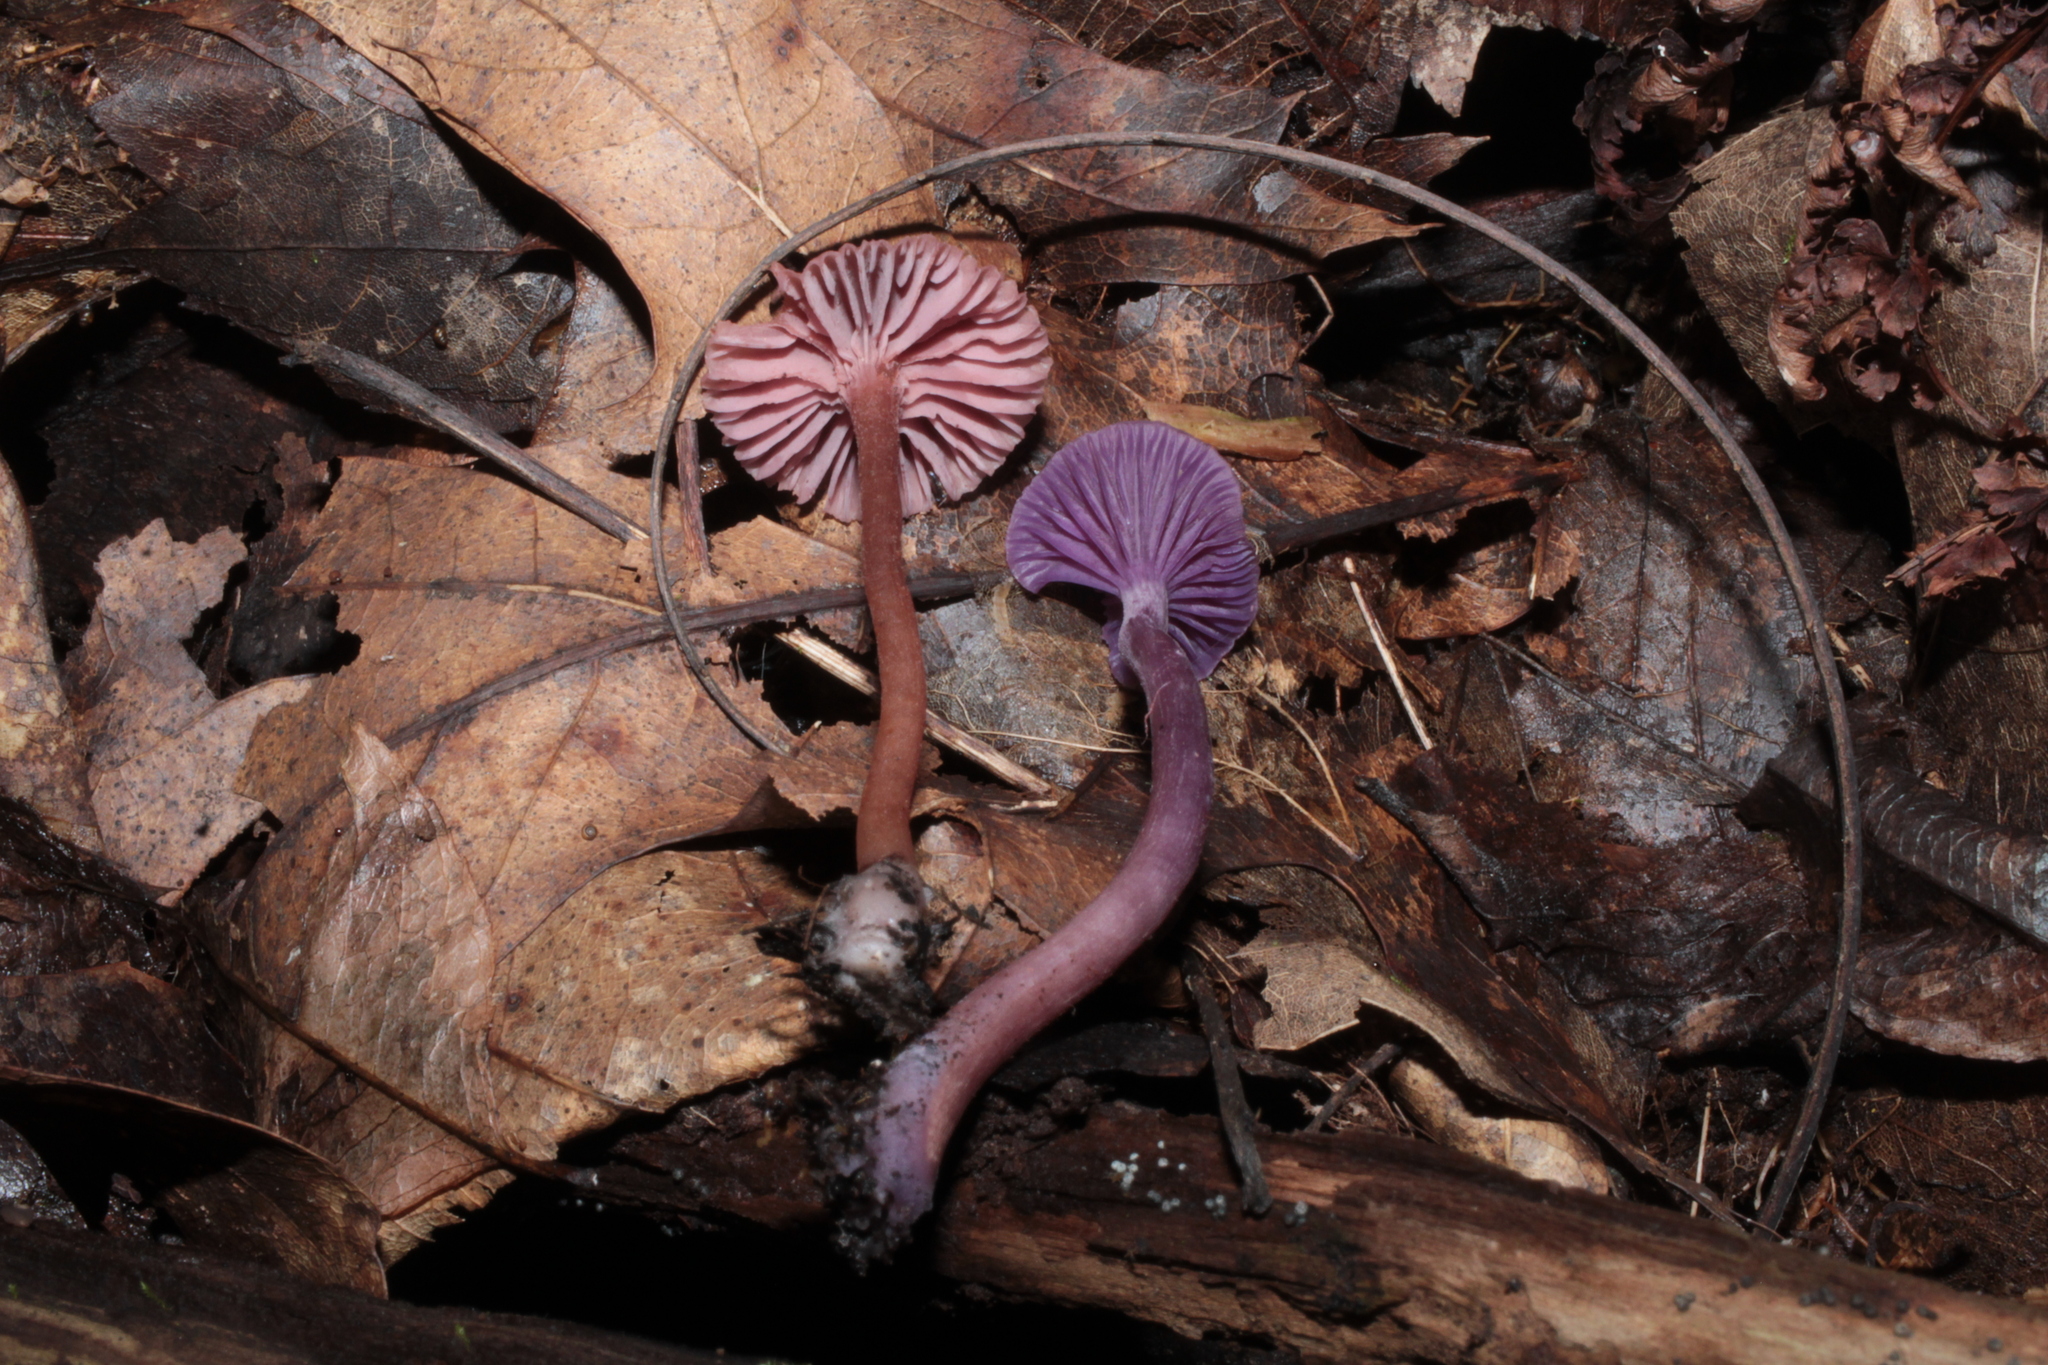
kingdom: Fungi
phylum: Basidiomycota
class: Agaricomycetes
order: Agaricales
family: Hydnangiaceae
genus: Laccaria
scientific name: Laccaria amethystina
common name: Amethyst deceiver
